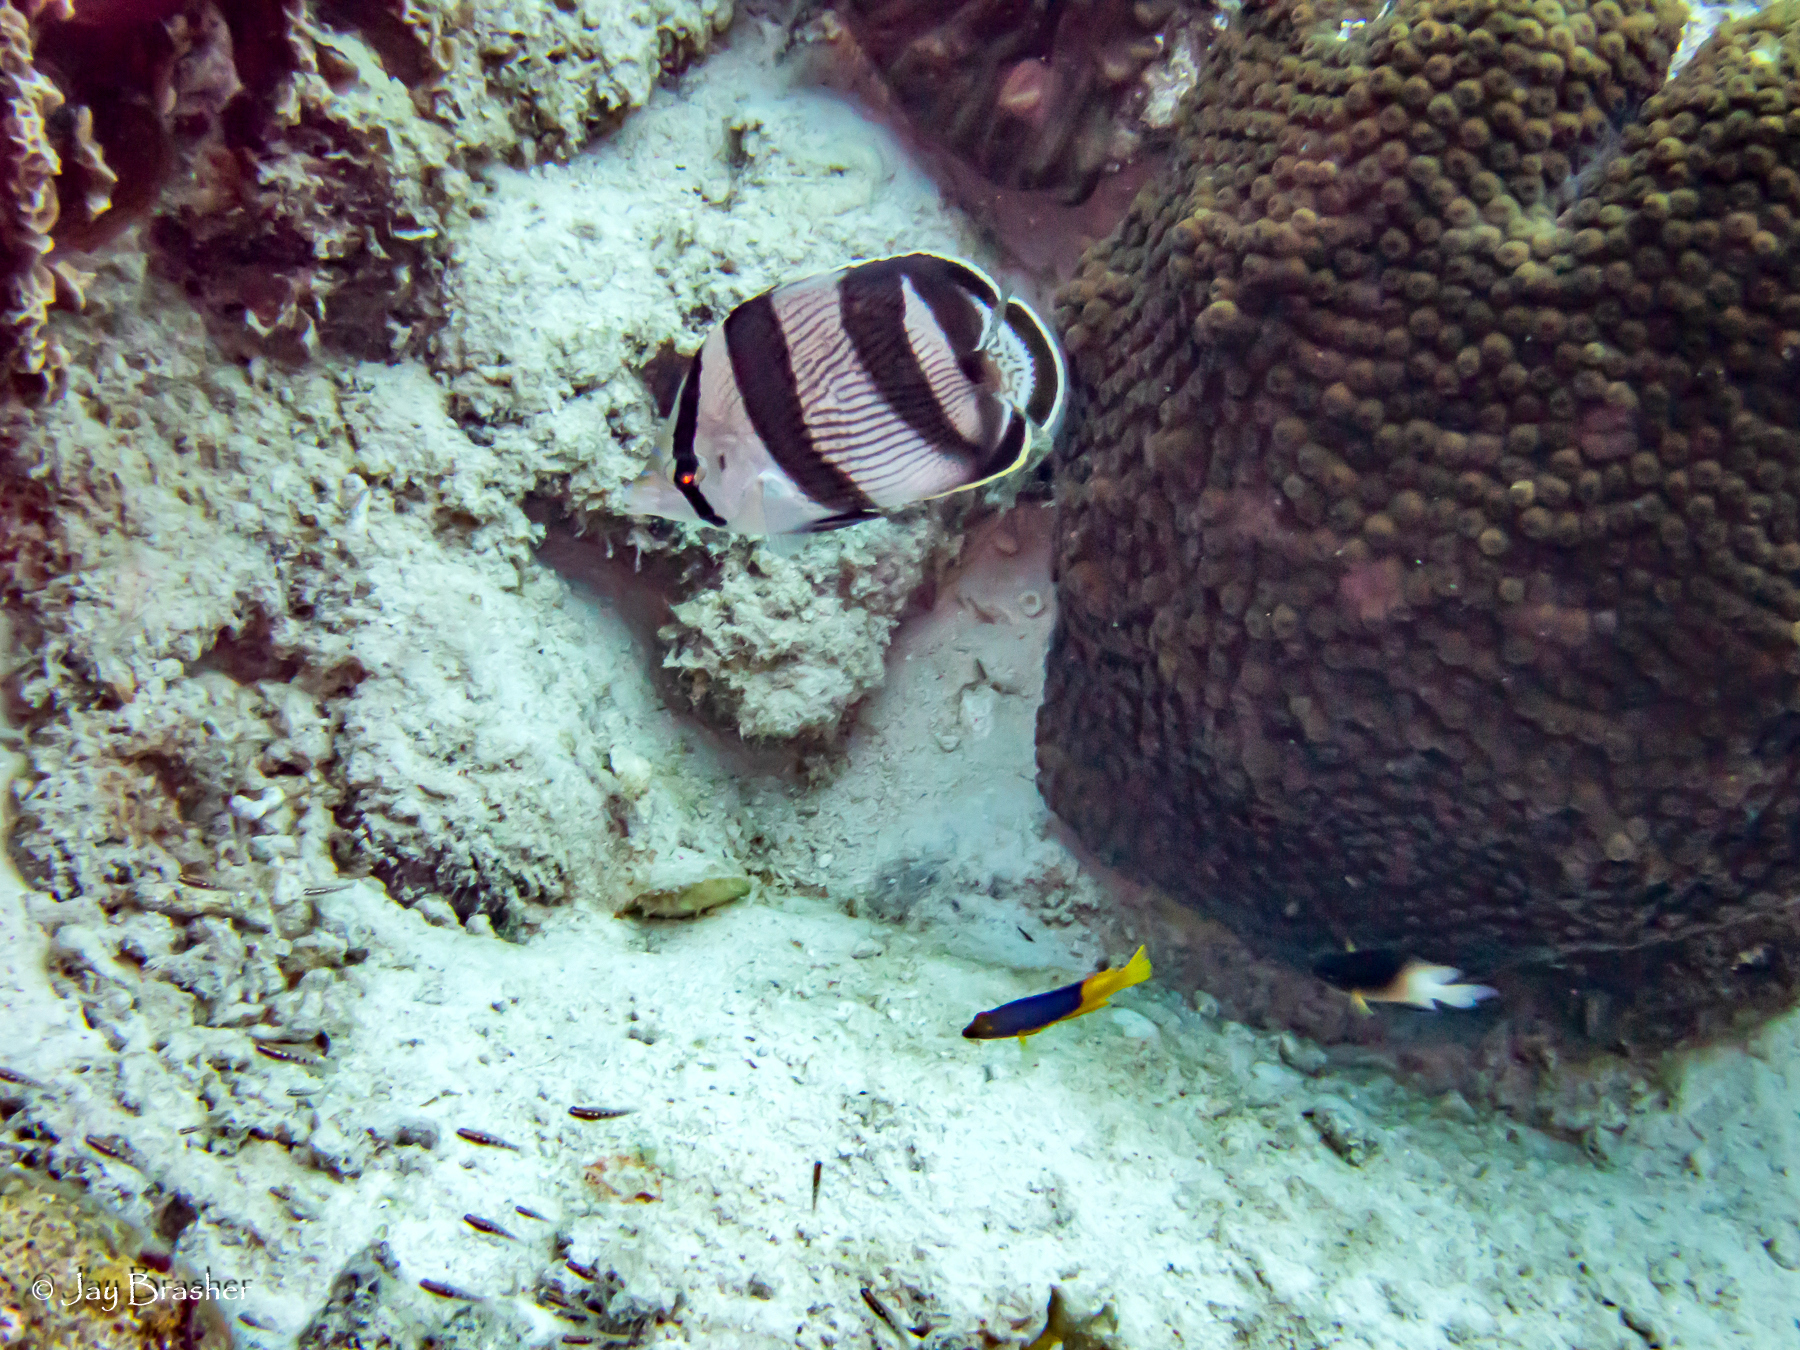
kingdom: Animalia
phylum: Cnidaria
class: Anthozoa
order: Scleractinia
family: Montastraeidae
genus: Montastraea
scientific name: Montastraea cavernosa
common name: Great star coral
